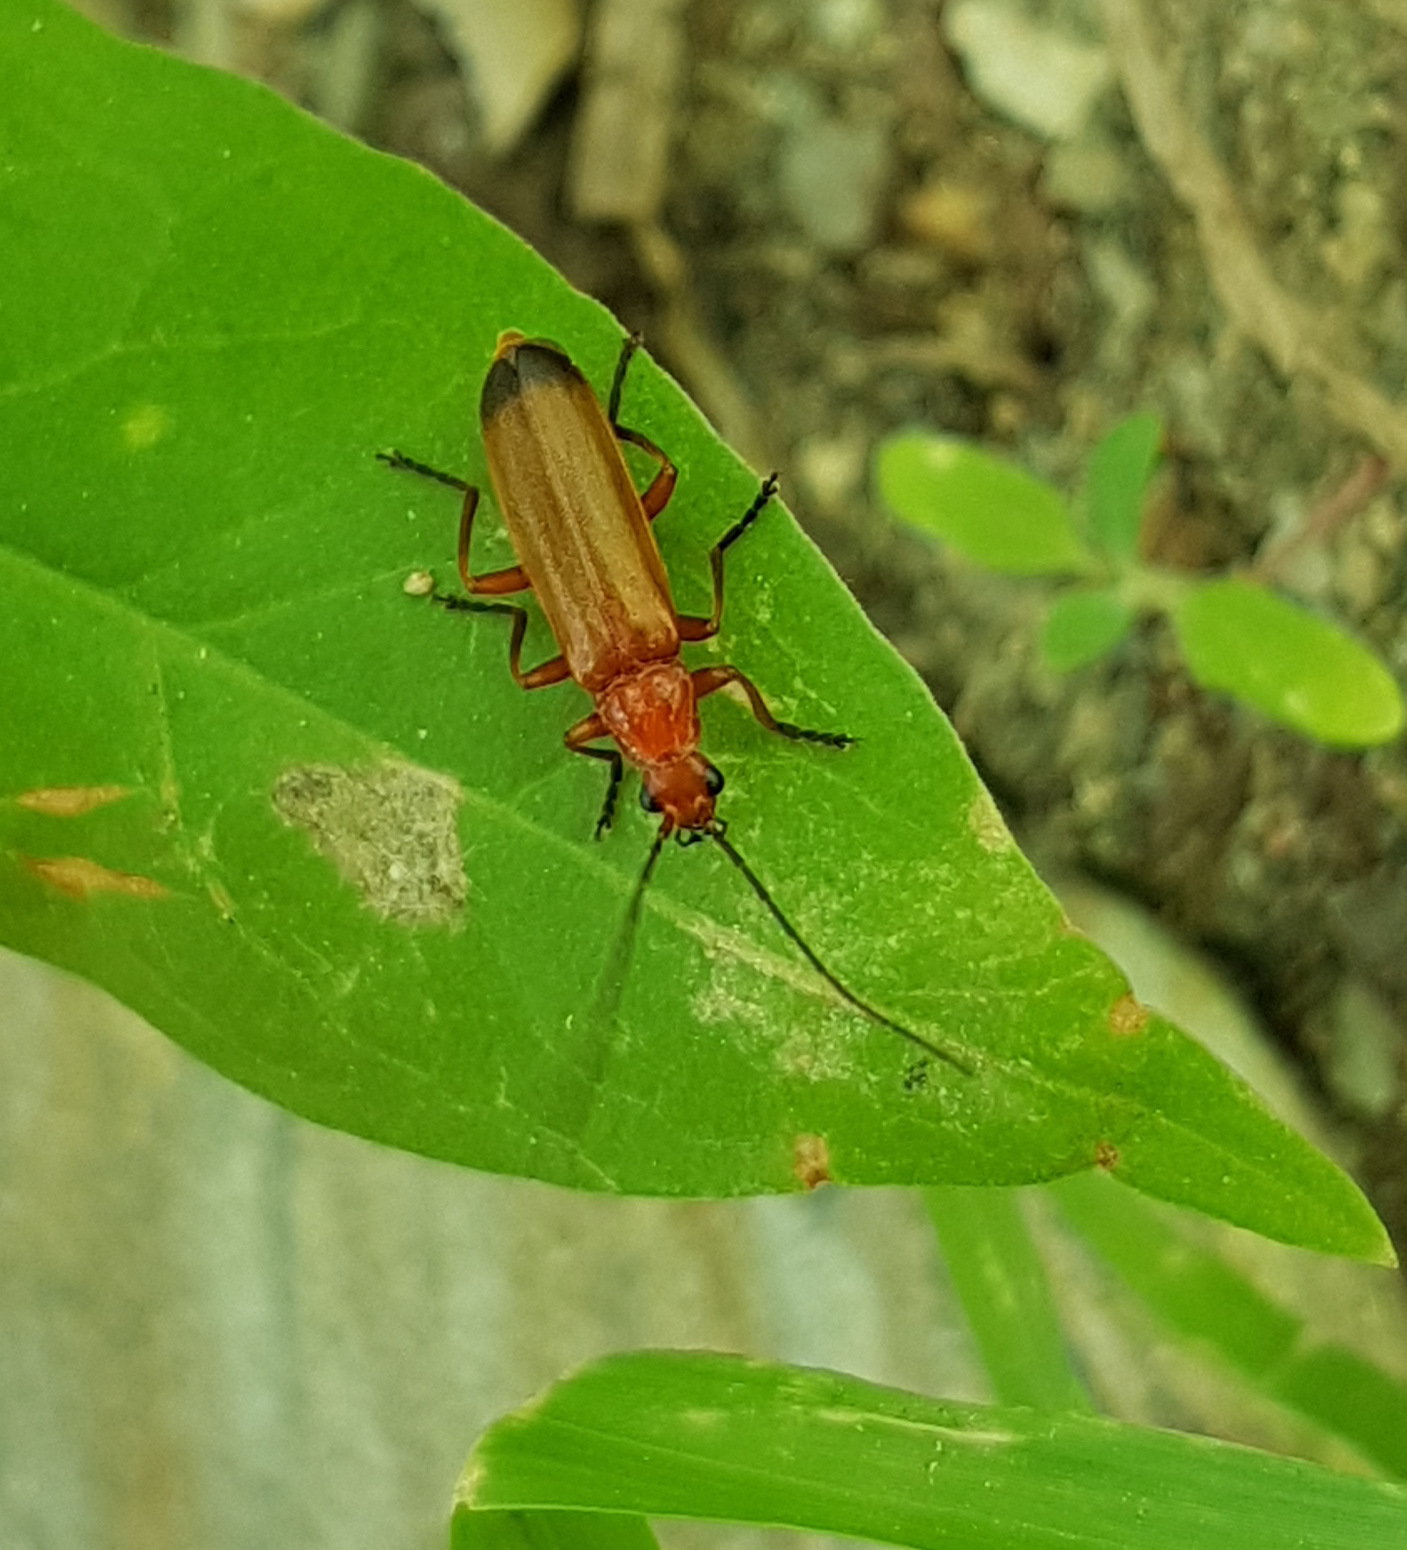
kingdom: Animalia
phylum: Arthropoda
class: Insecta
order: Coleoptera
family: Cantharidae
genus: Rhagonycha
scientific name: Rhagonycha fulva
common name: Common red soldier beetle
